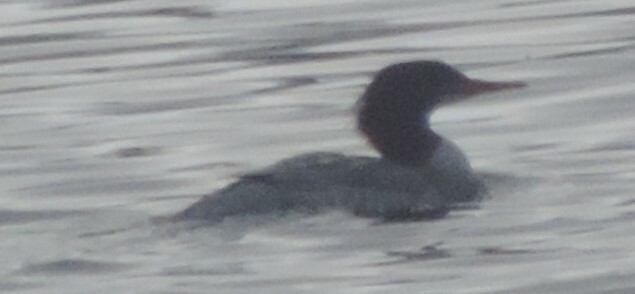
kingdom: Animalia
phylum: Chordata
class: Aves
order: Anseriformes
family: Anatidae
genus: Mergus
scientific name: Mergus merganser
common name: Common merganser
